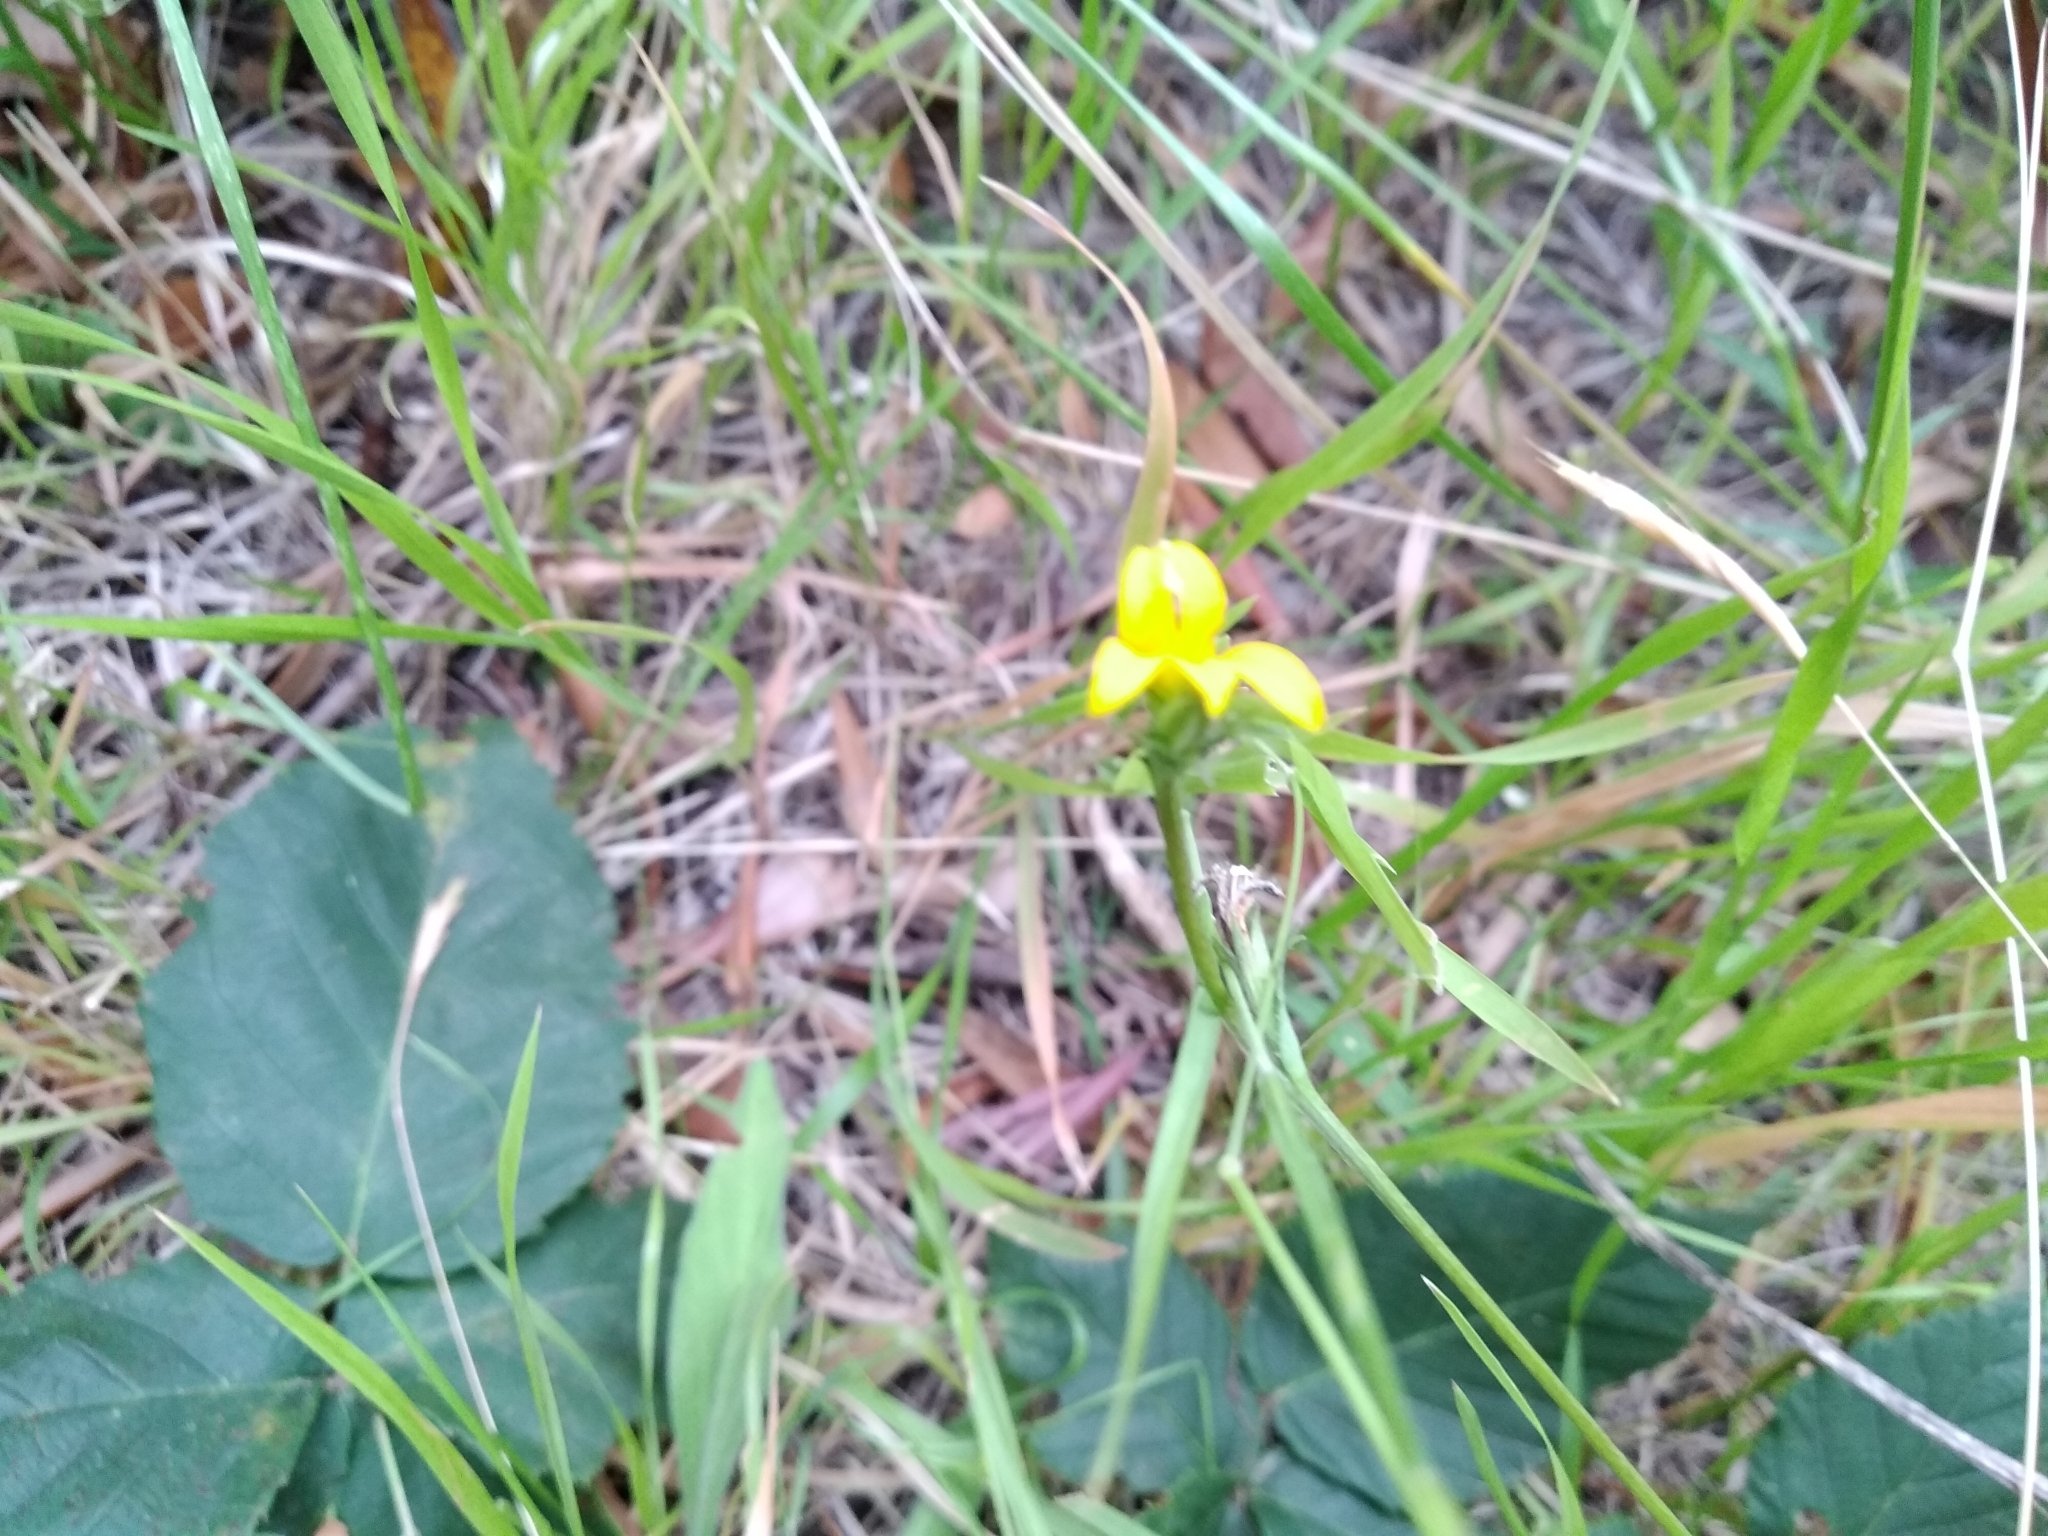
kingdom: Plantae
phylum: Tracheophyta
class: Magnoliopsida
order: Asterales
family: Campanulaceae
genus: Monopsis
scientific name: Monopsis lutea
